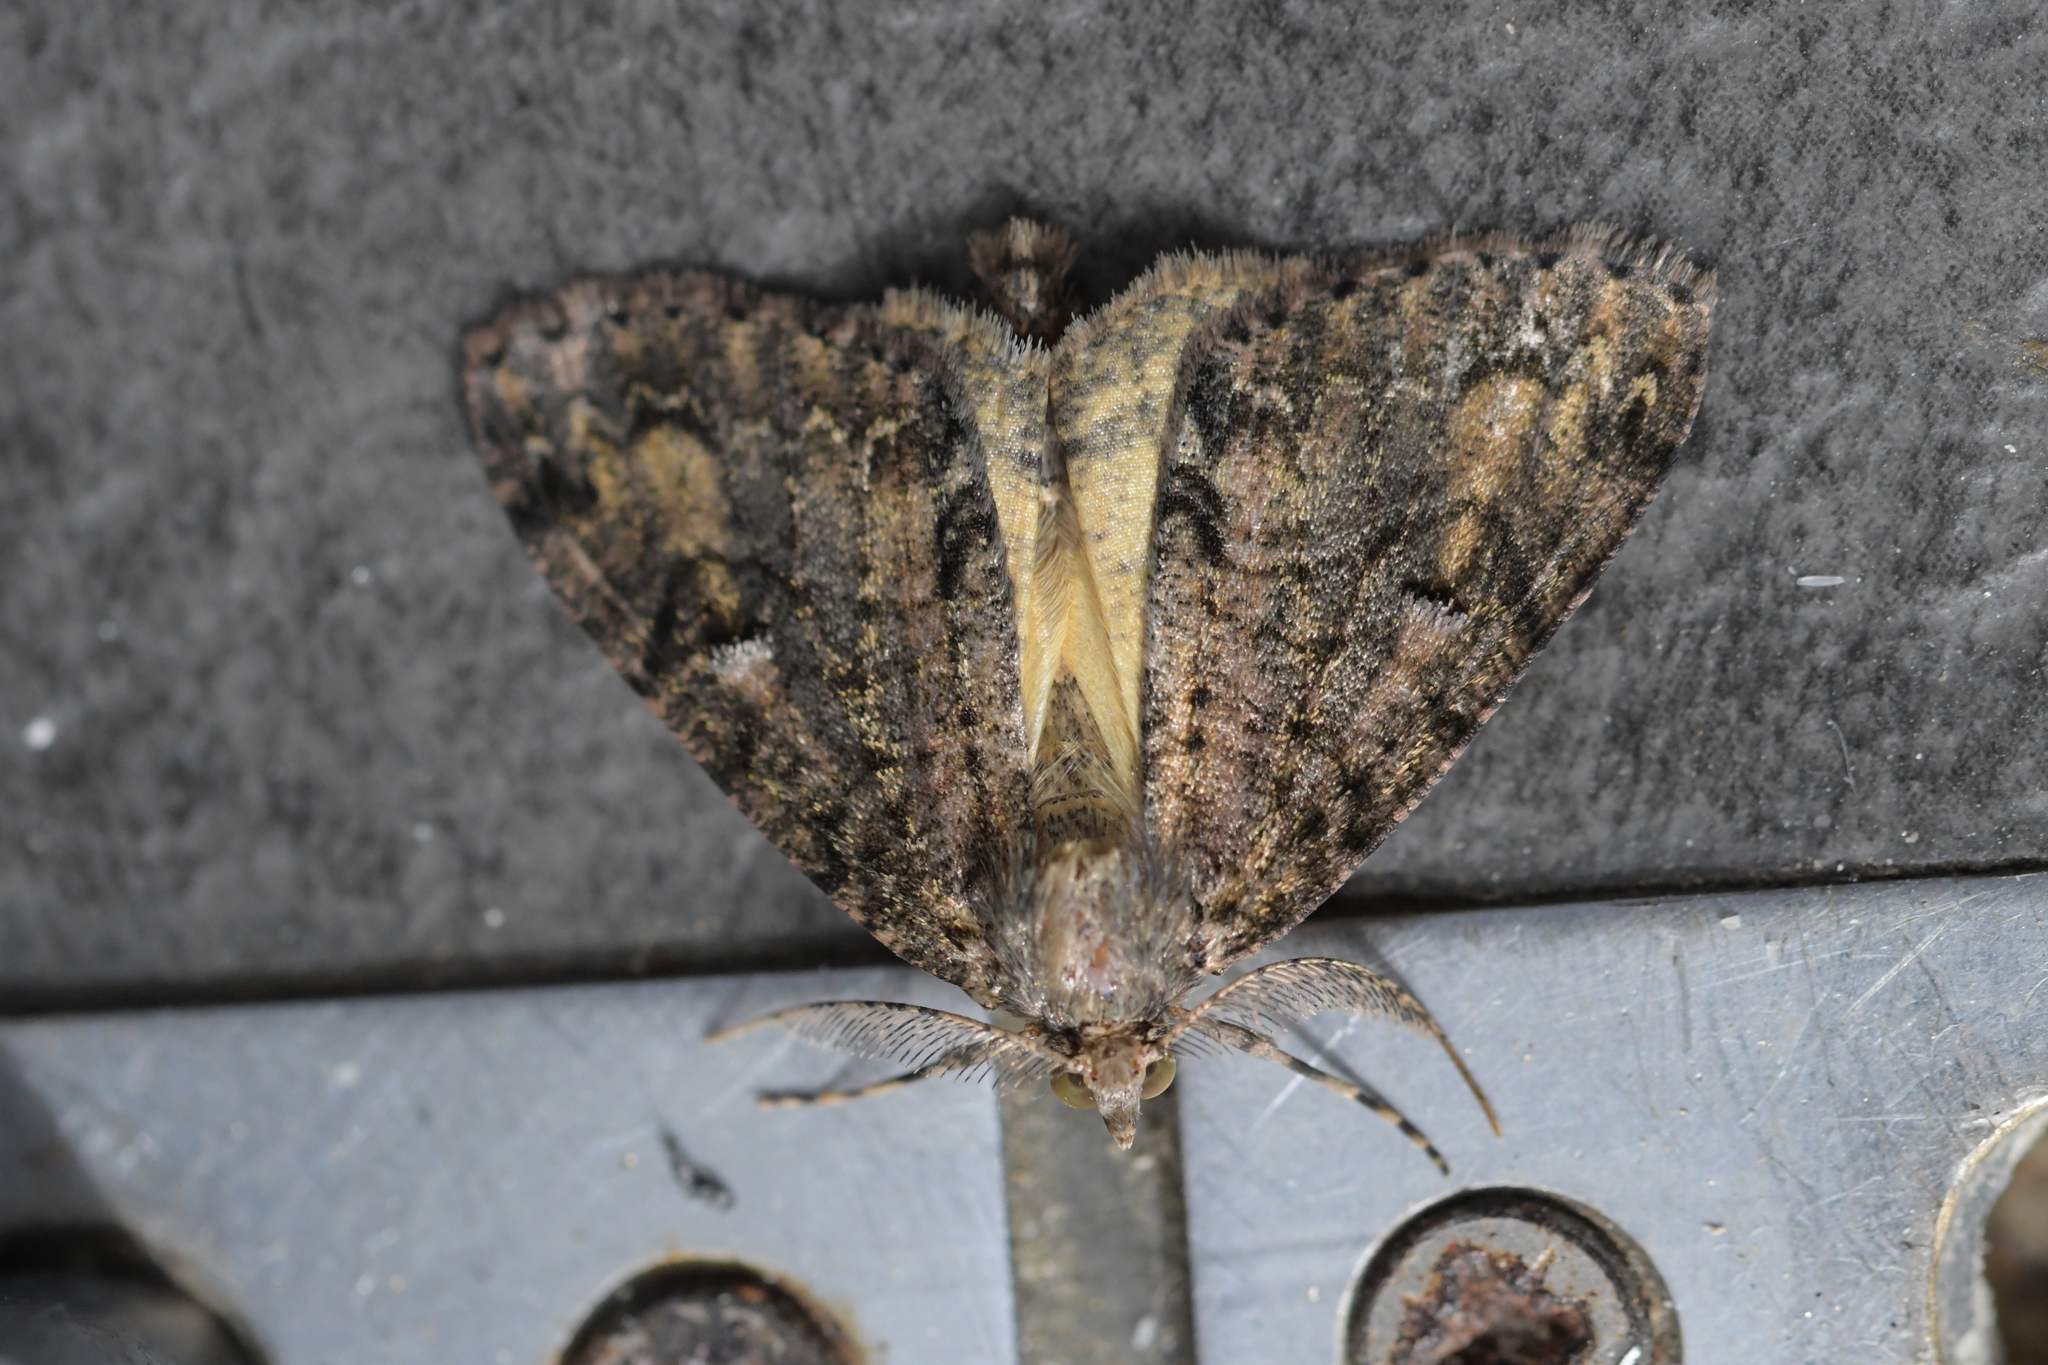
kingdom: Animalia
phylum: Arthropoda
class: Insecta
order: Lepidoptera
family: Geometridae
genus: Pseudocoremia
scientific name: Pseudocoremia suavis
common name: Common forest looper
